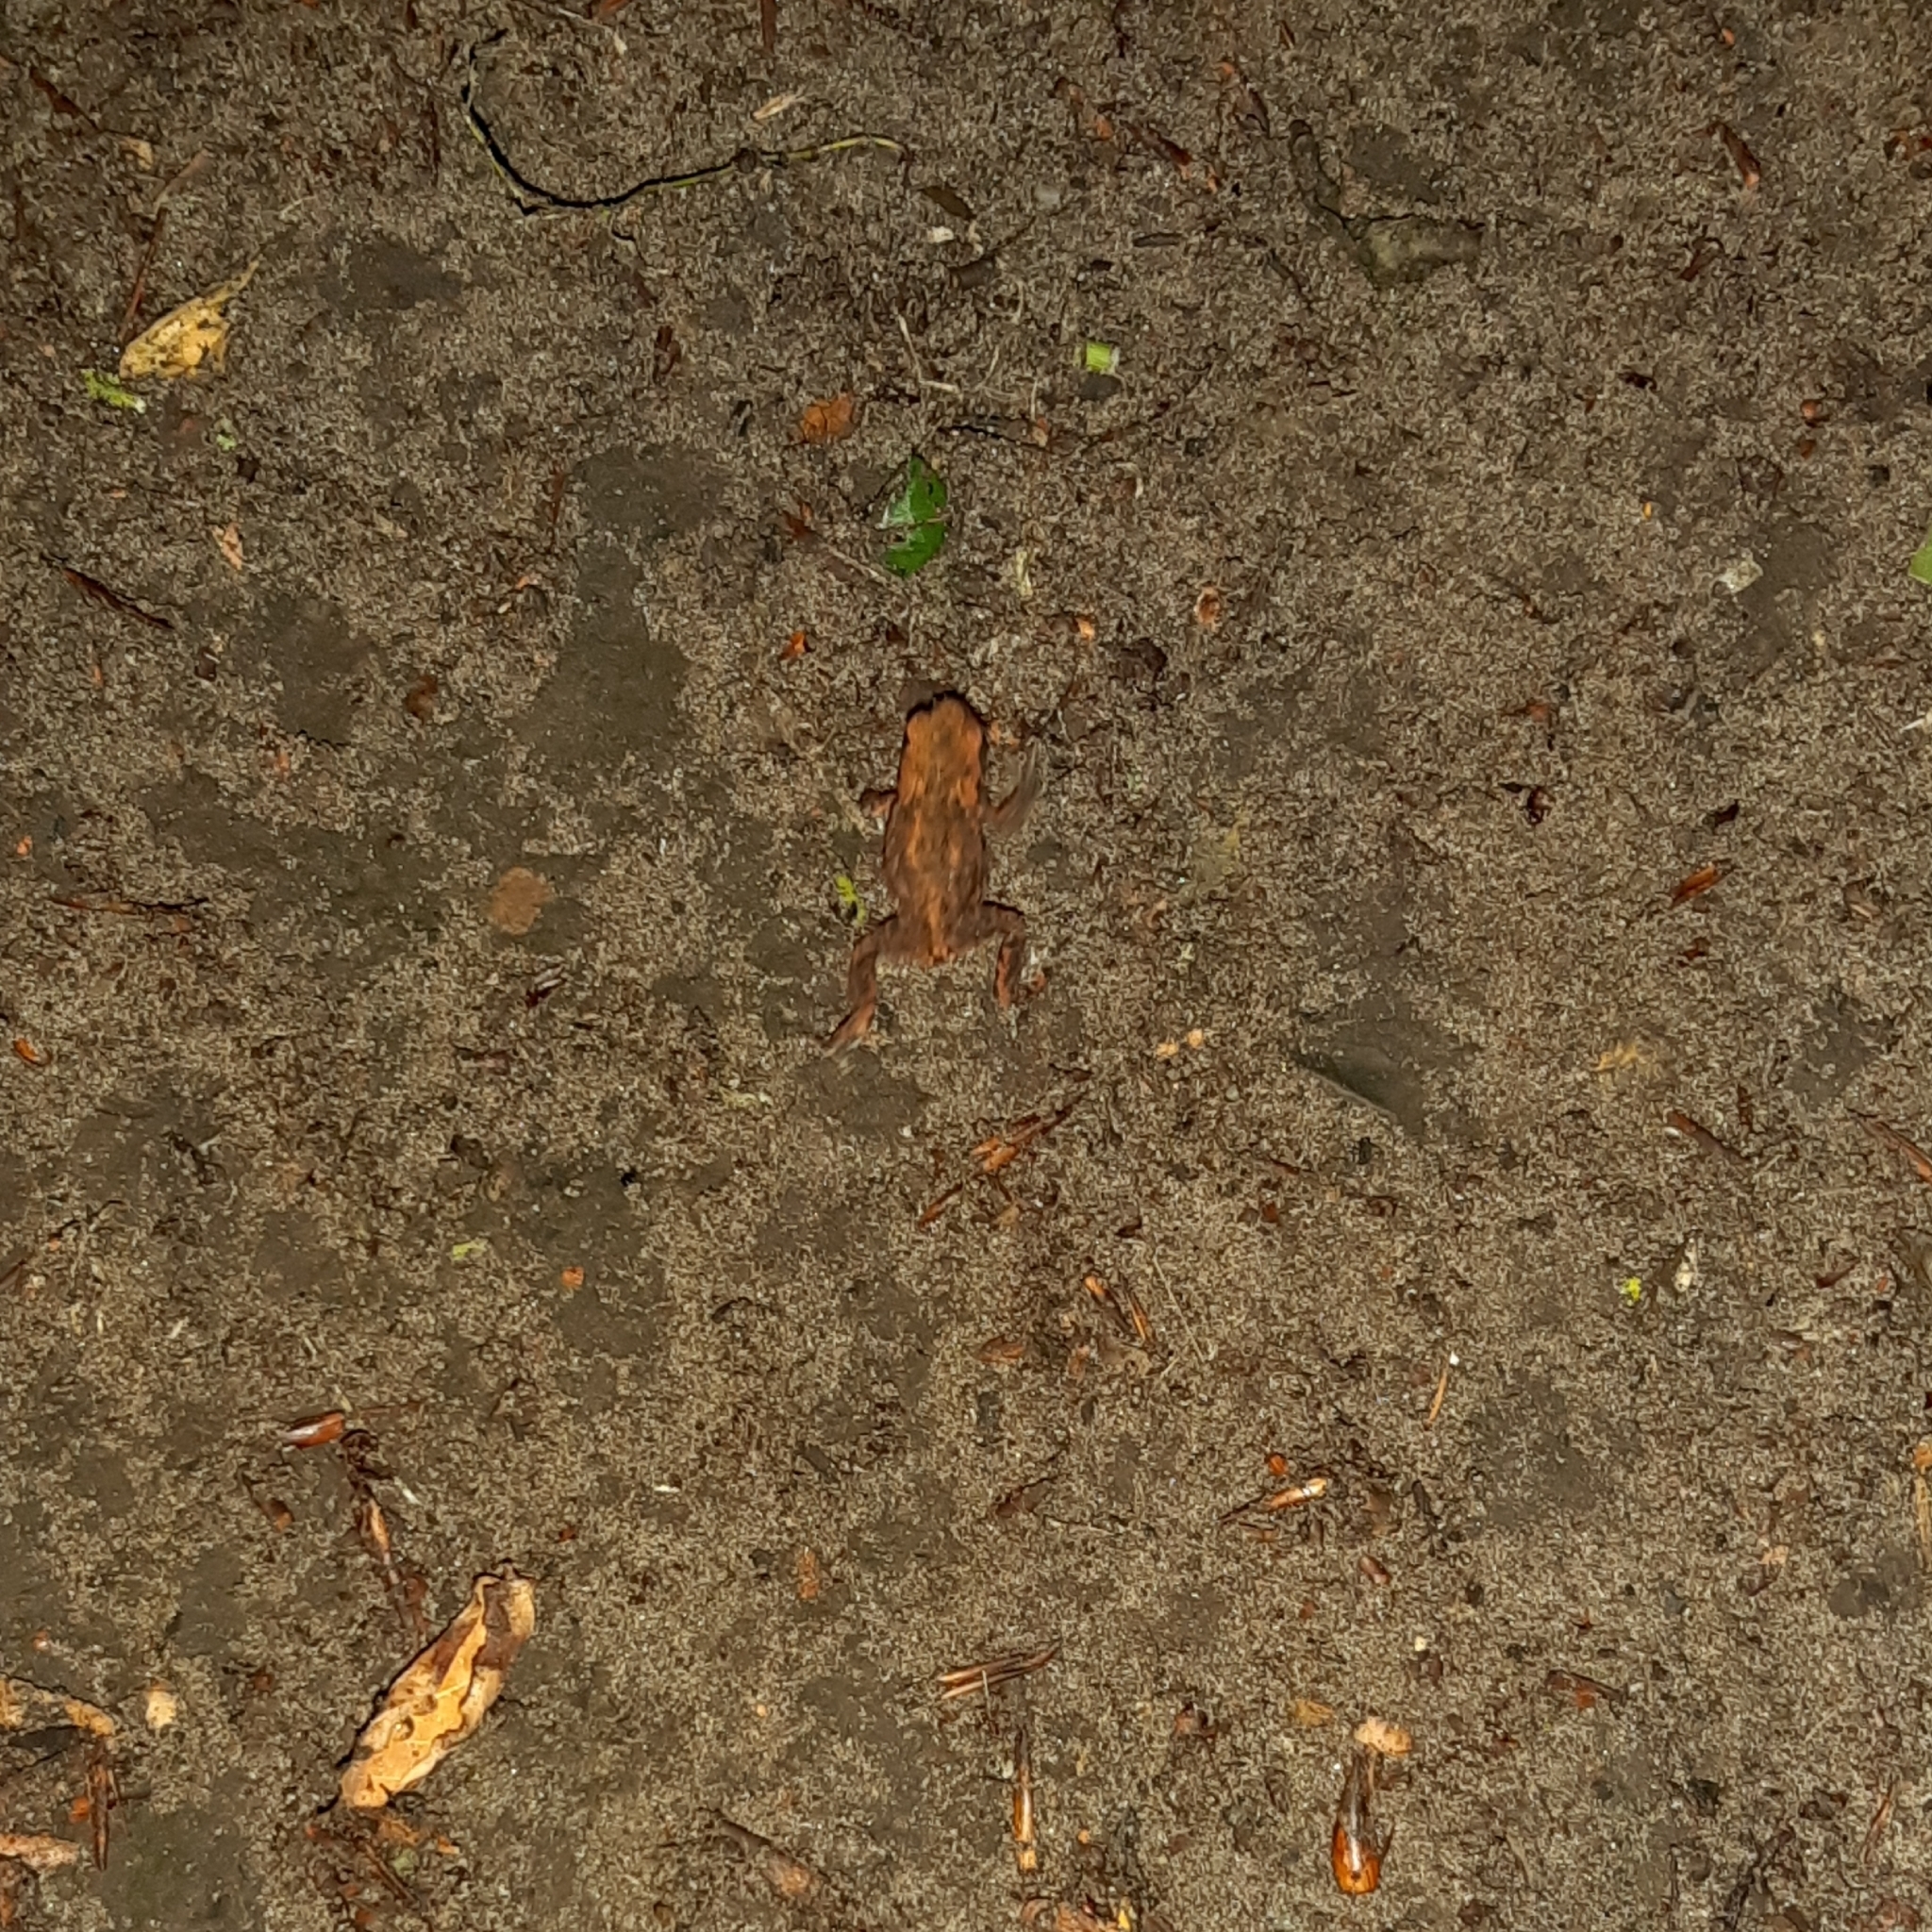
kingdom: Animalia
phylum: Chordata
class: Amphibia
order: Anura
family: Bufonidae
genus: Bufo
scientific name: Bufo bufo
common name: Common toad
